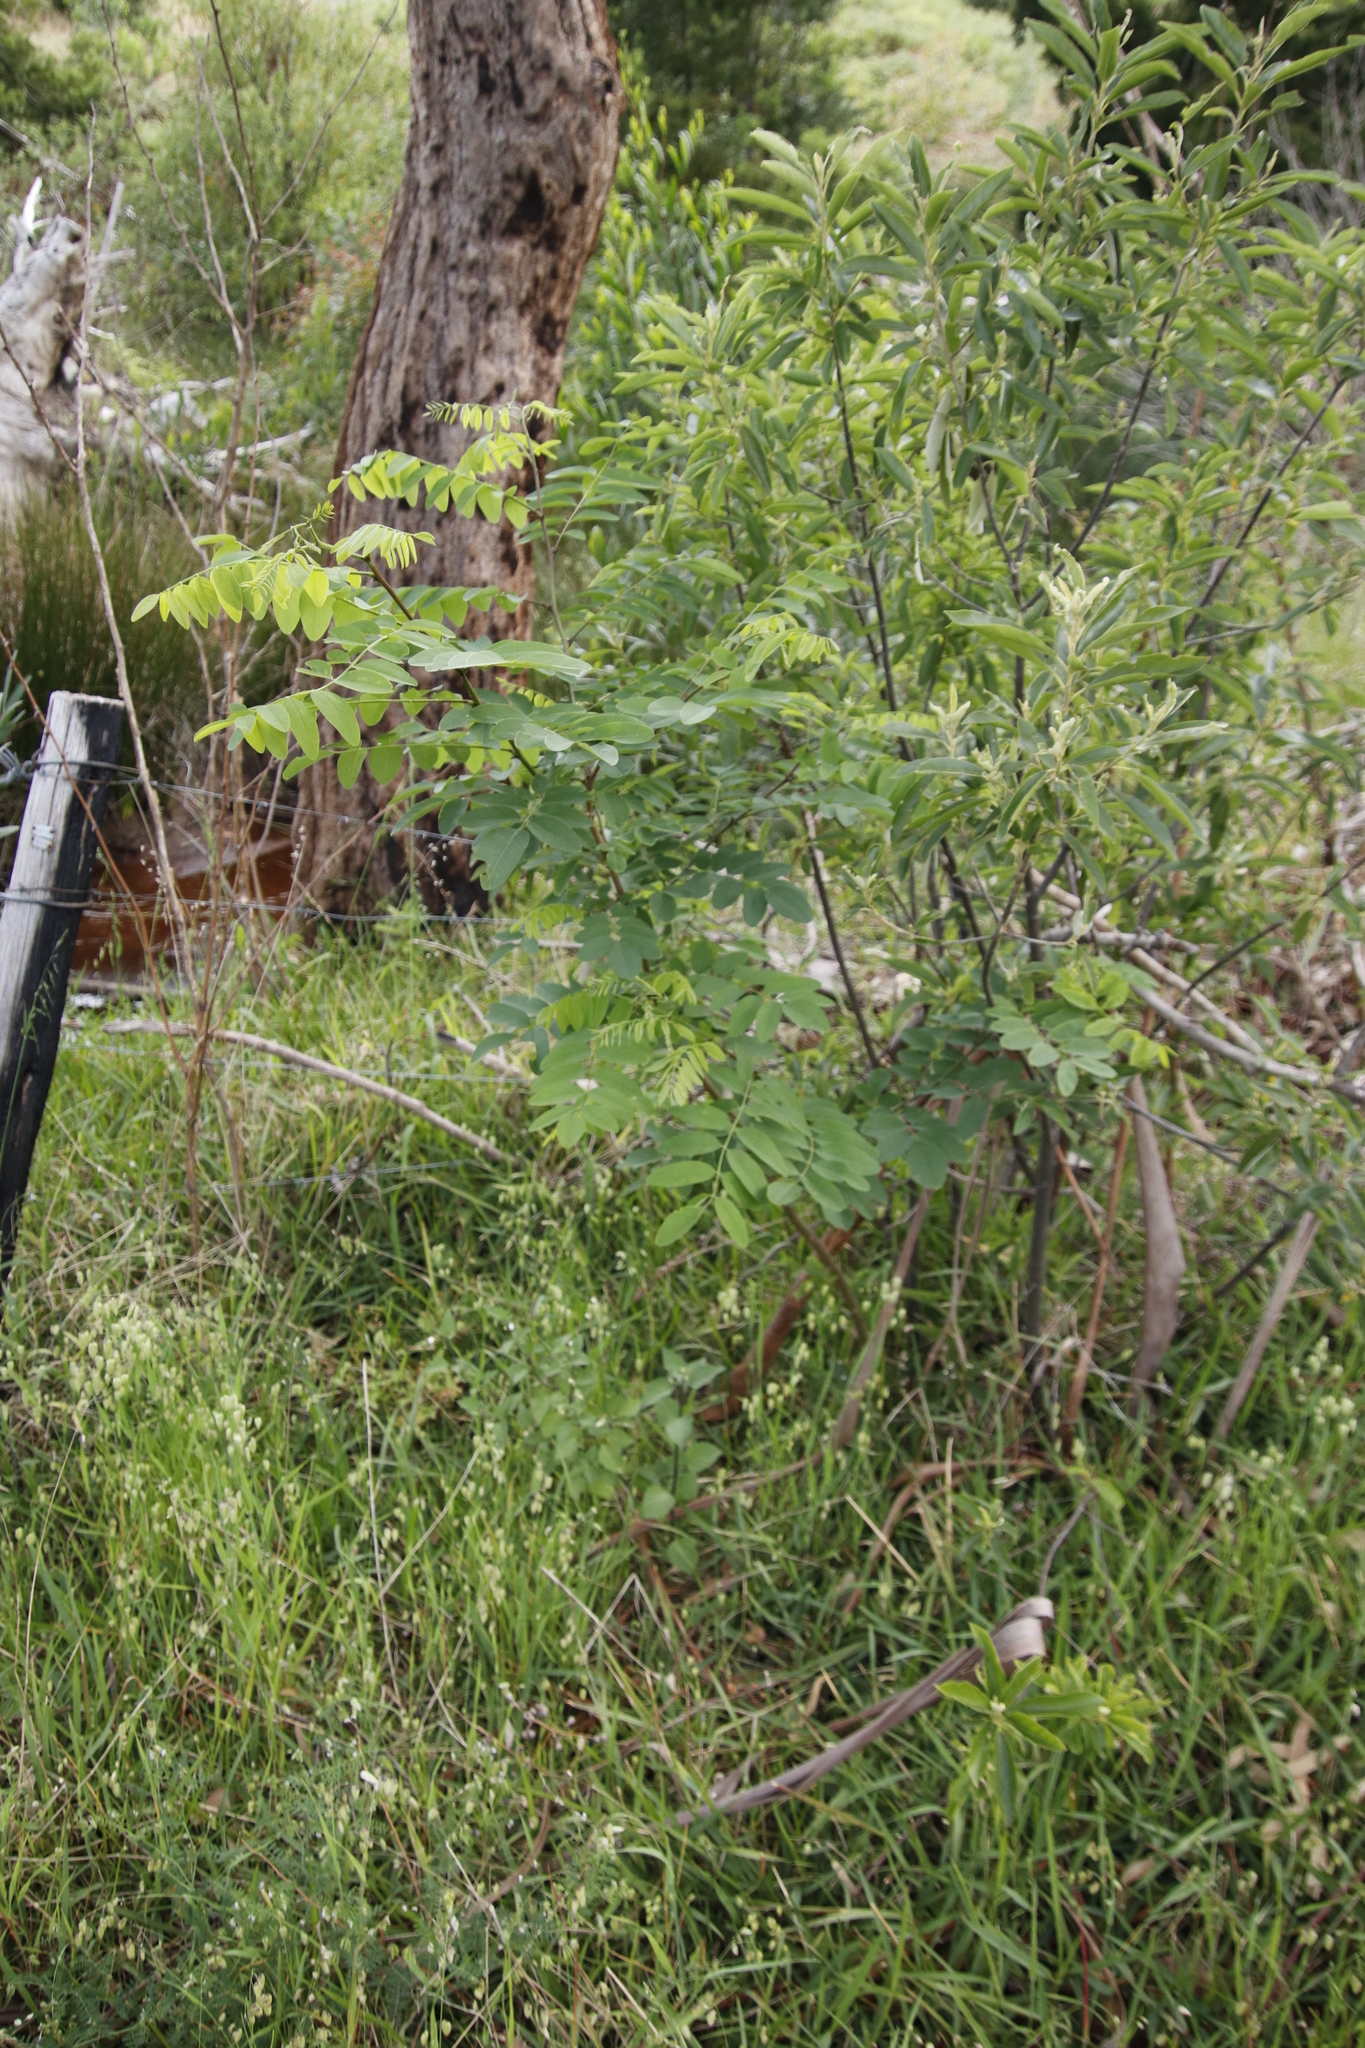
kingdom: Plantae
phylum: Tracheophyta
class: Magnoliopsida
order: Fabales
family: Fabaceae
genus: Robinia
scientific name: Robinia pseudoacacia
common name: Black locust
